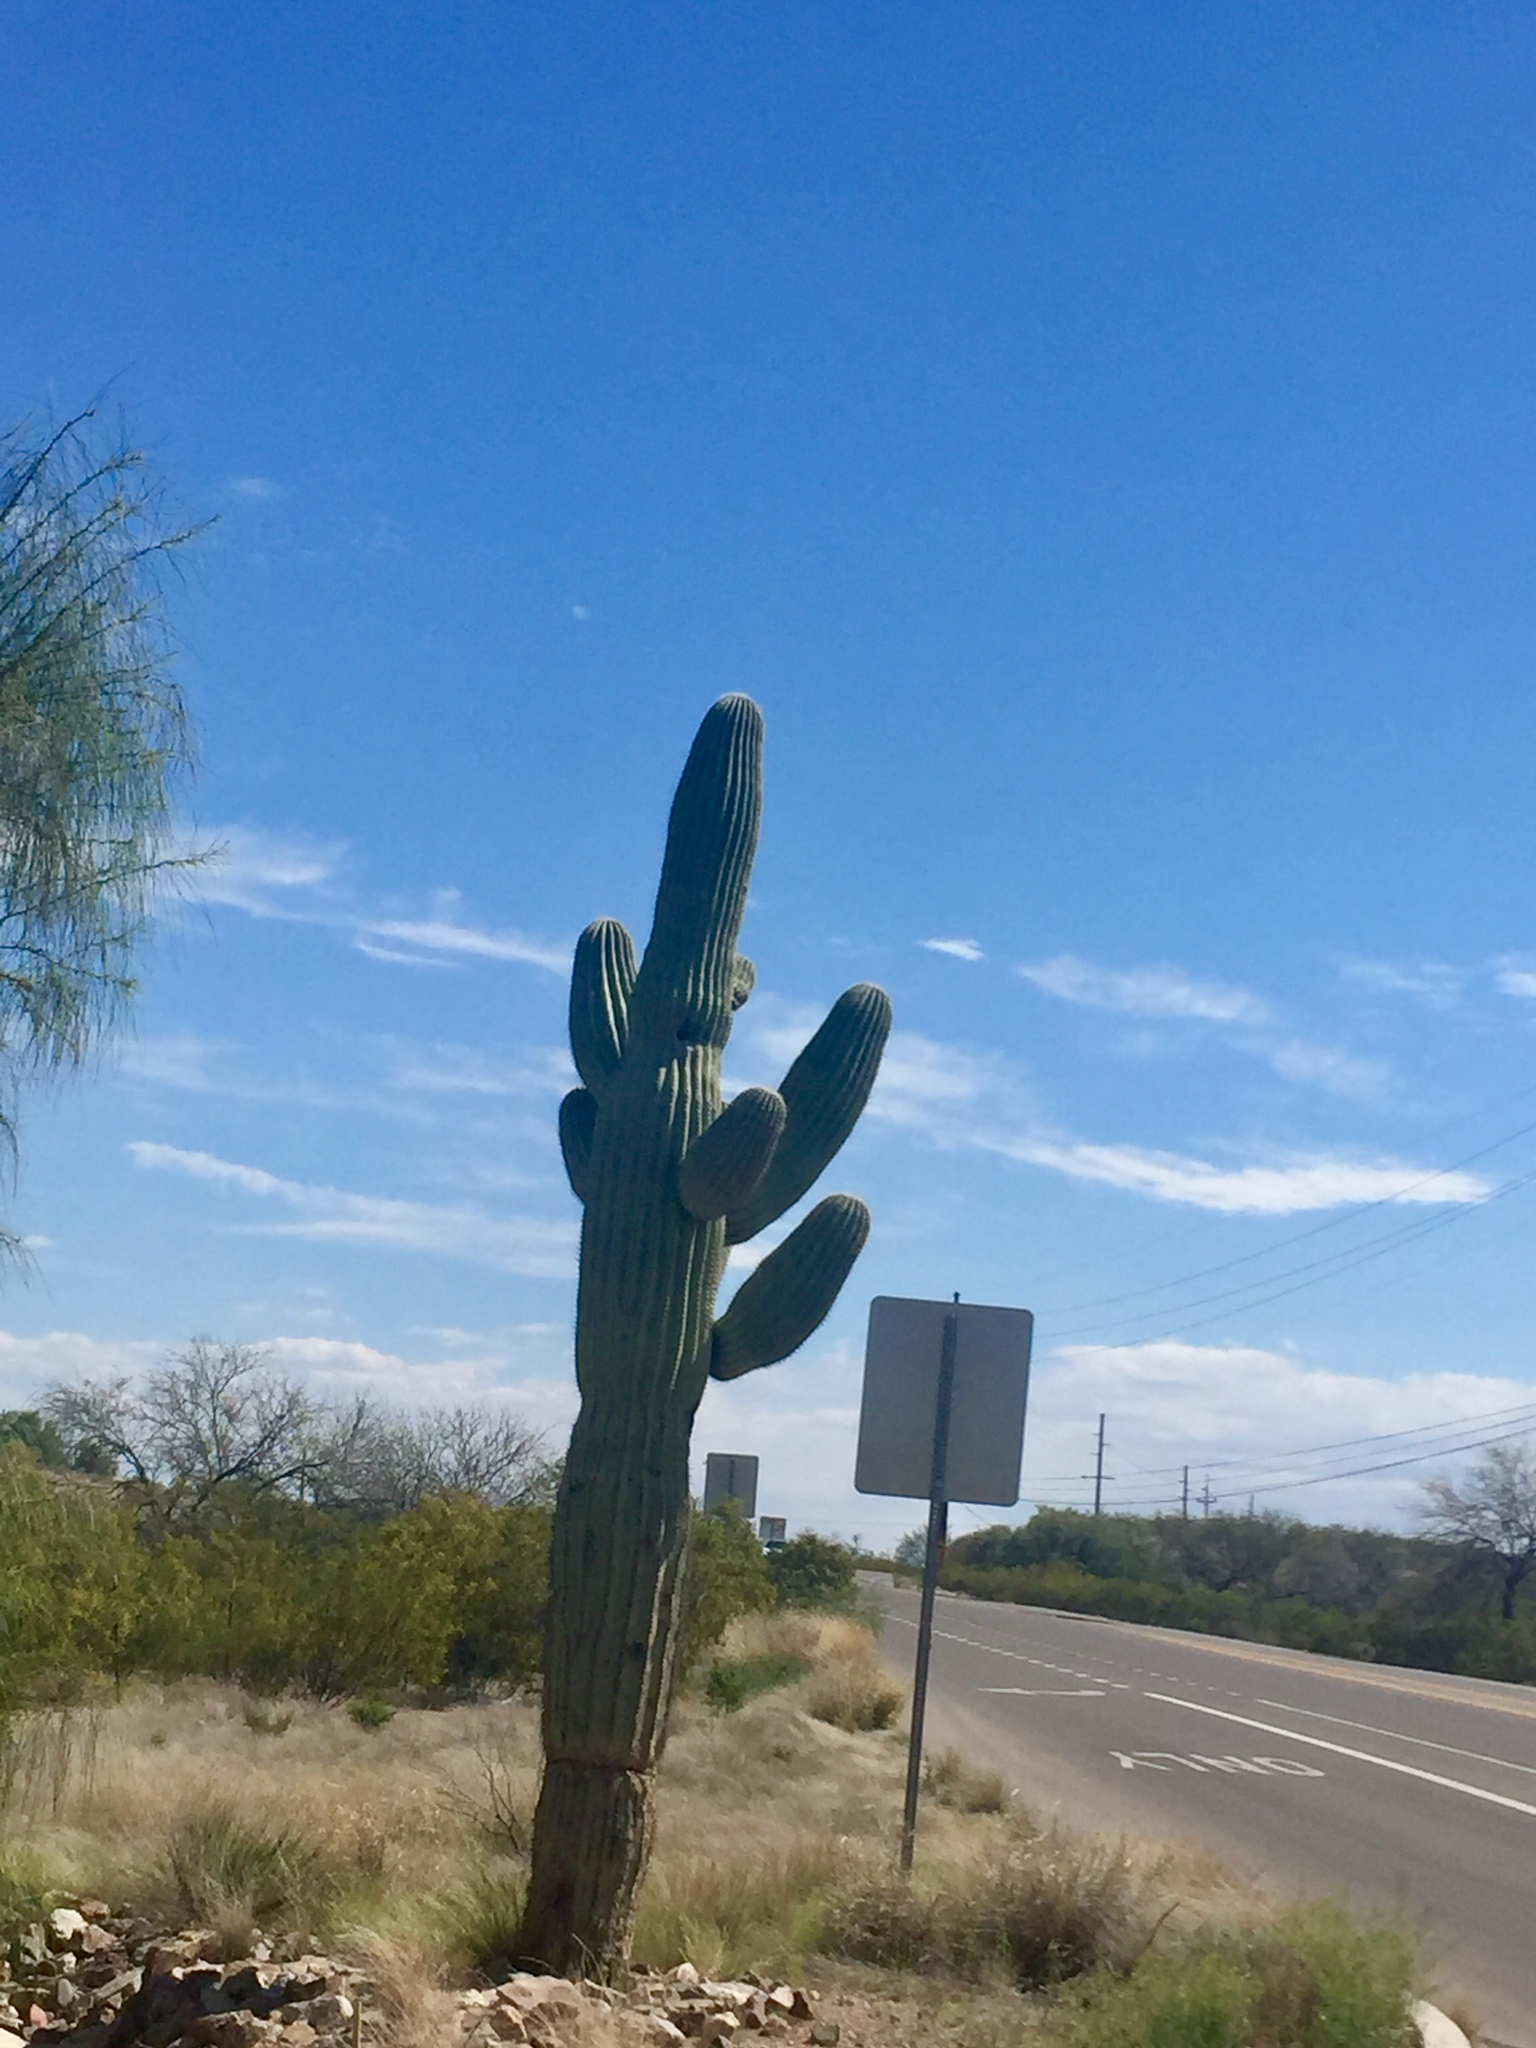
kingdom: Plantae
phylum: Tracheophyta
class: Magnoliopsida
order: Caryophyllales
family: Cactaceae
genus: Carnegiea
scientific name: Carnegiea gigantea
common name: Saguaro
